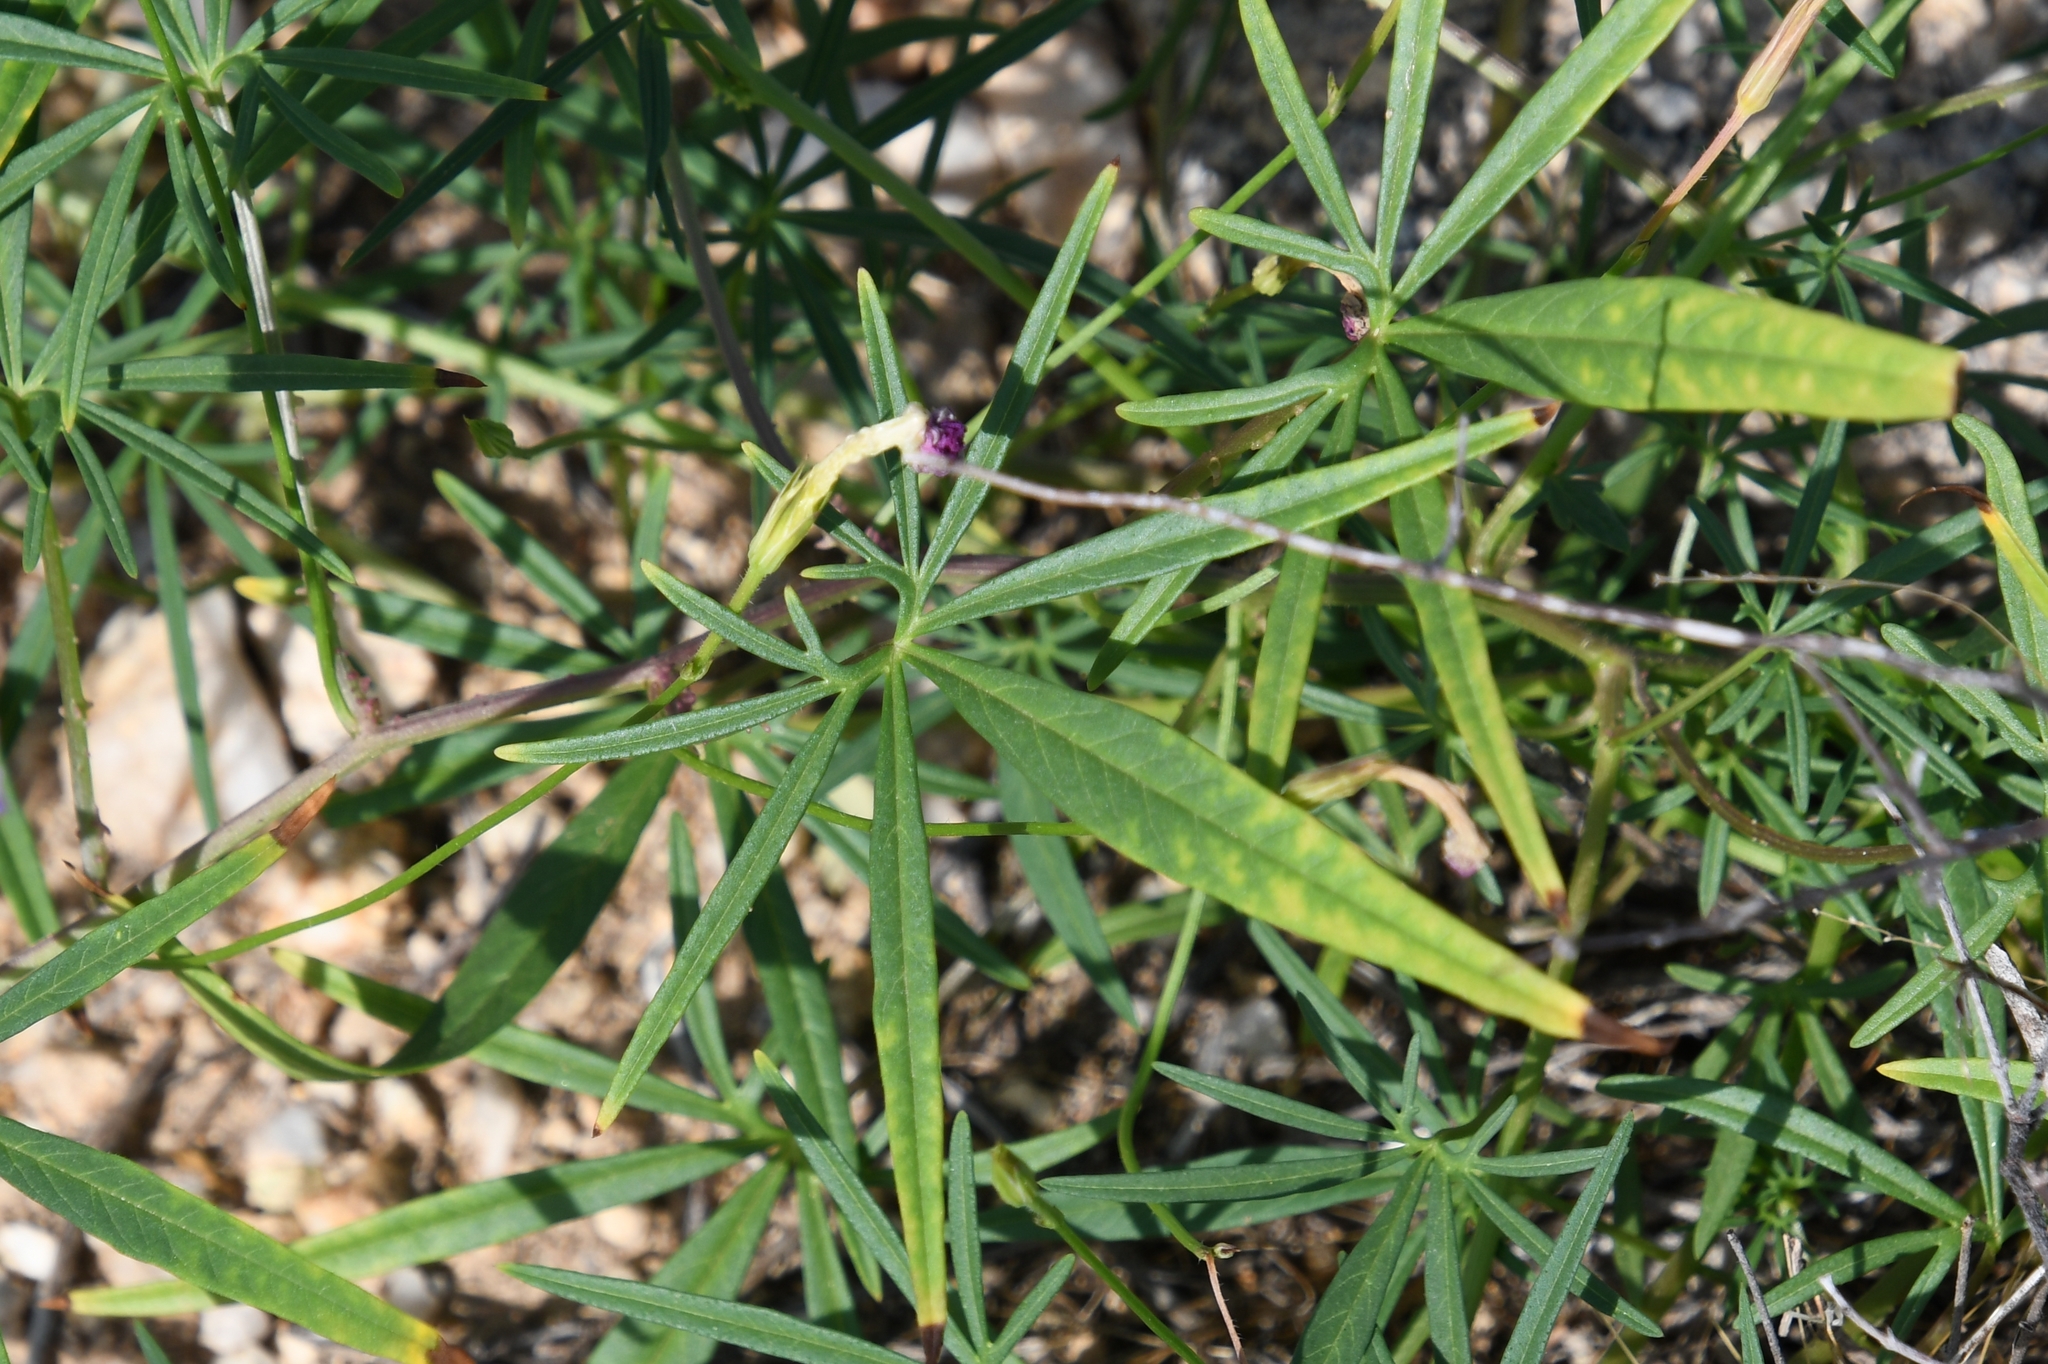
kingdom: Plantae
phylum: Tracheophyta
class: Magnoliopsida
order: Solanales
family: Convolvulaceae
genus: Ipomoea
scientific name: Ipomoea ternifolia
